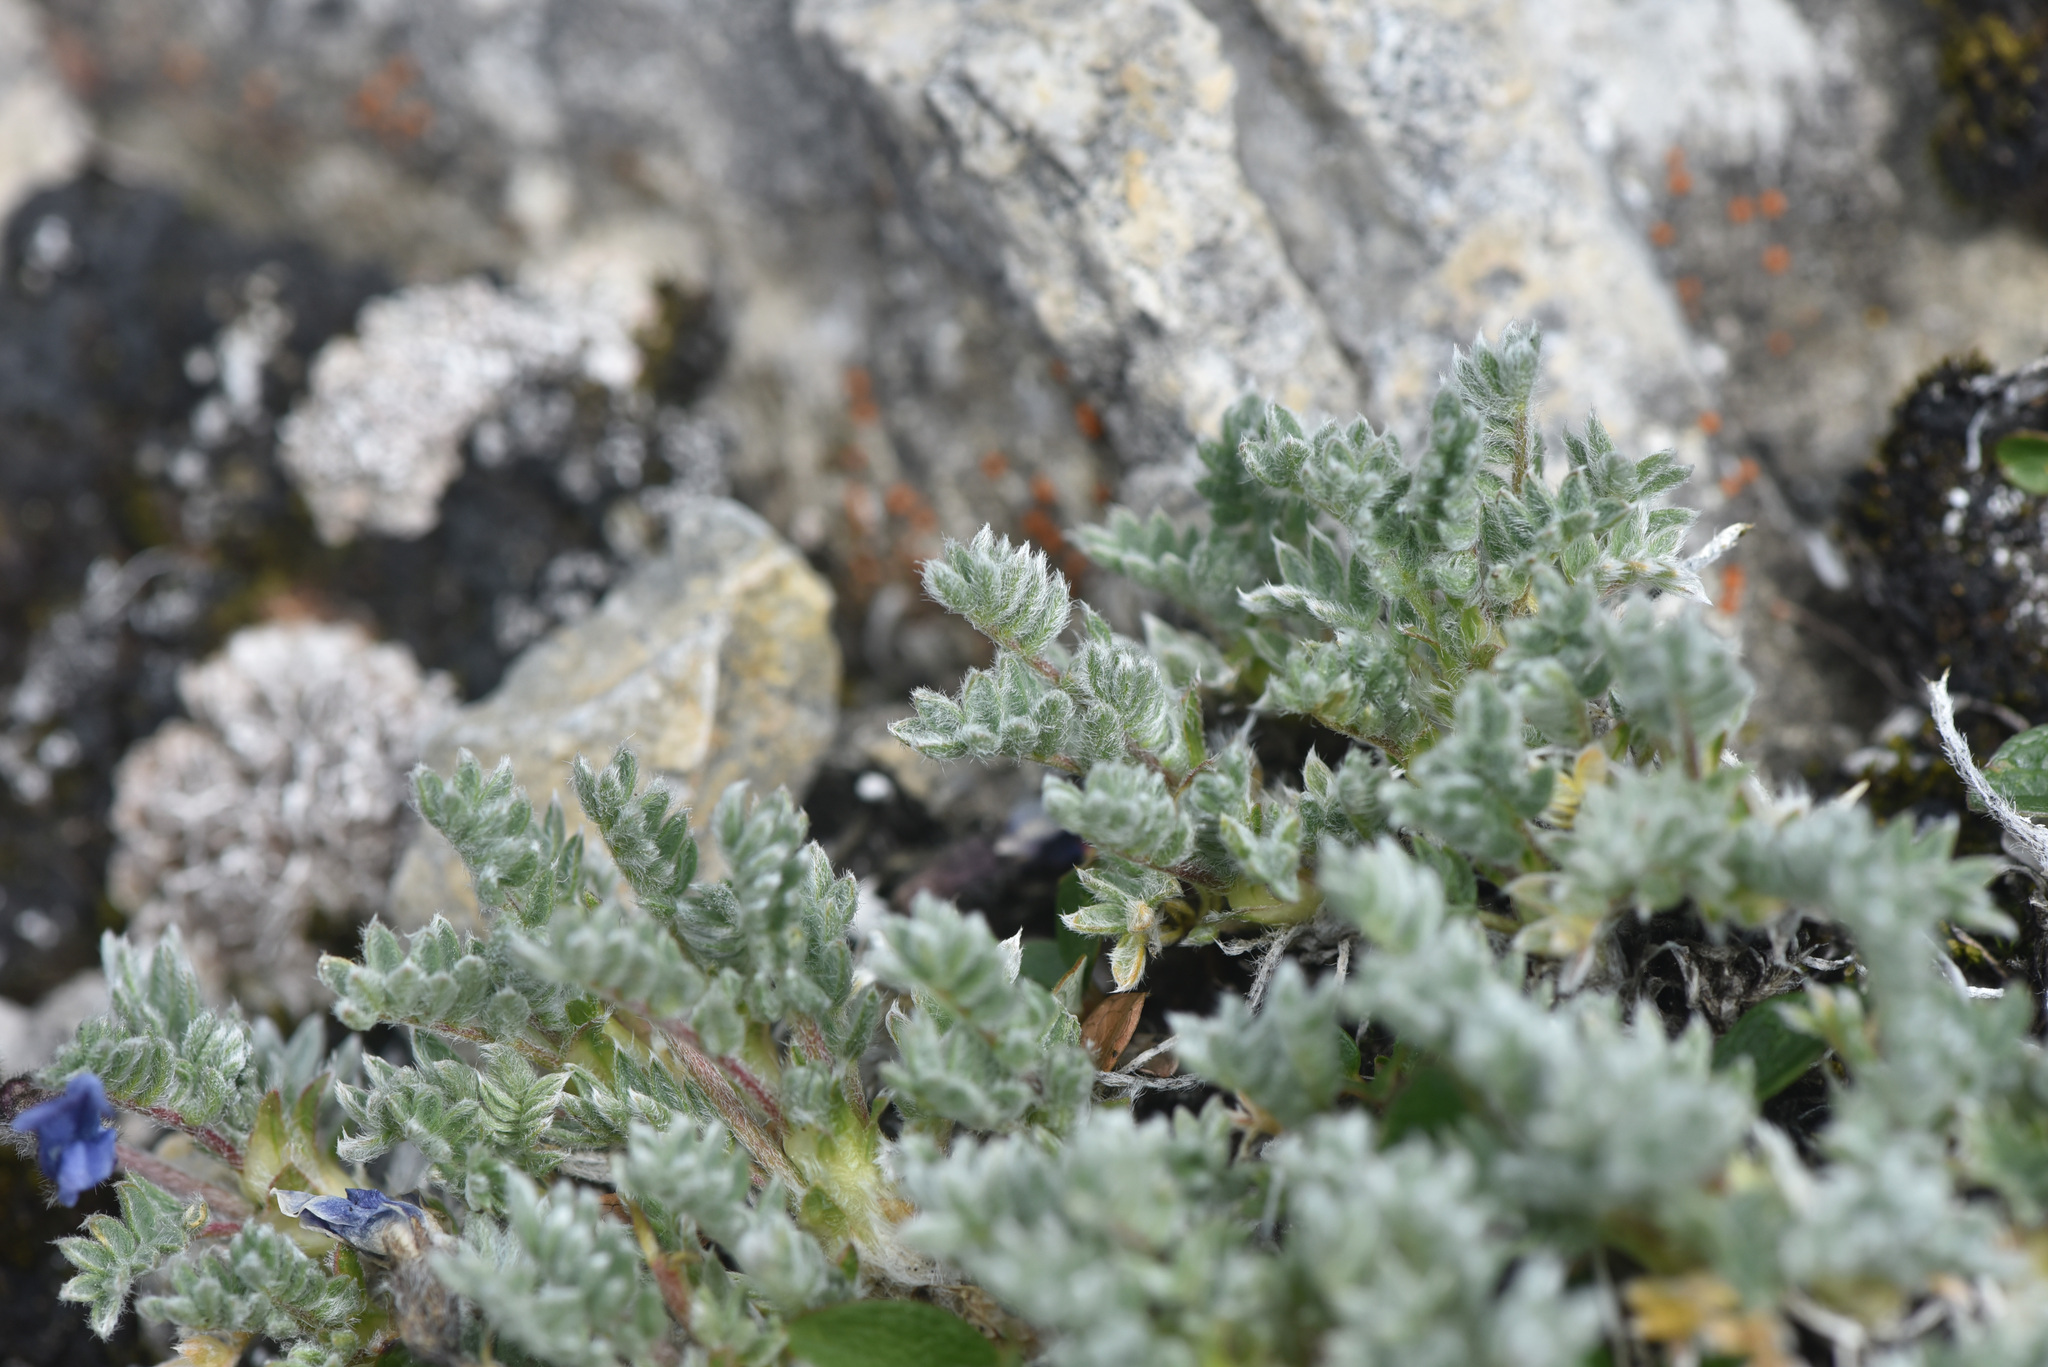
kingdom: Plantae
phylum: Tracheophyta
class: Magnoliopsida
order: Fabales
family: Fabaceae
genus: Oxytropis
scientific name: Oxytropis podocarpa
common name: Gray's oxytrope
